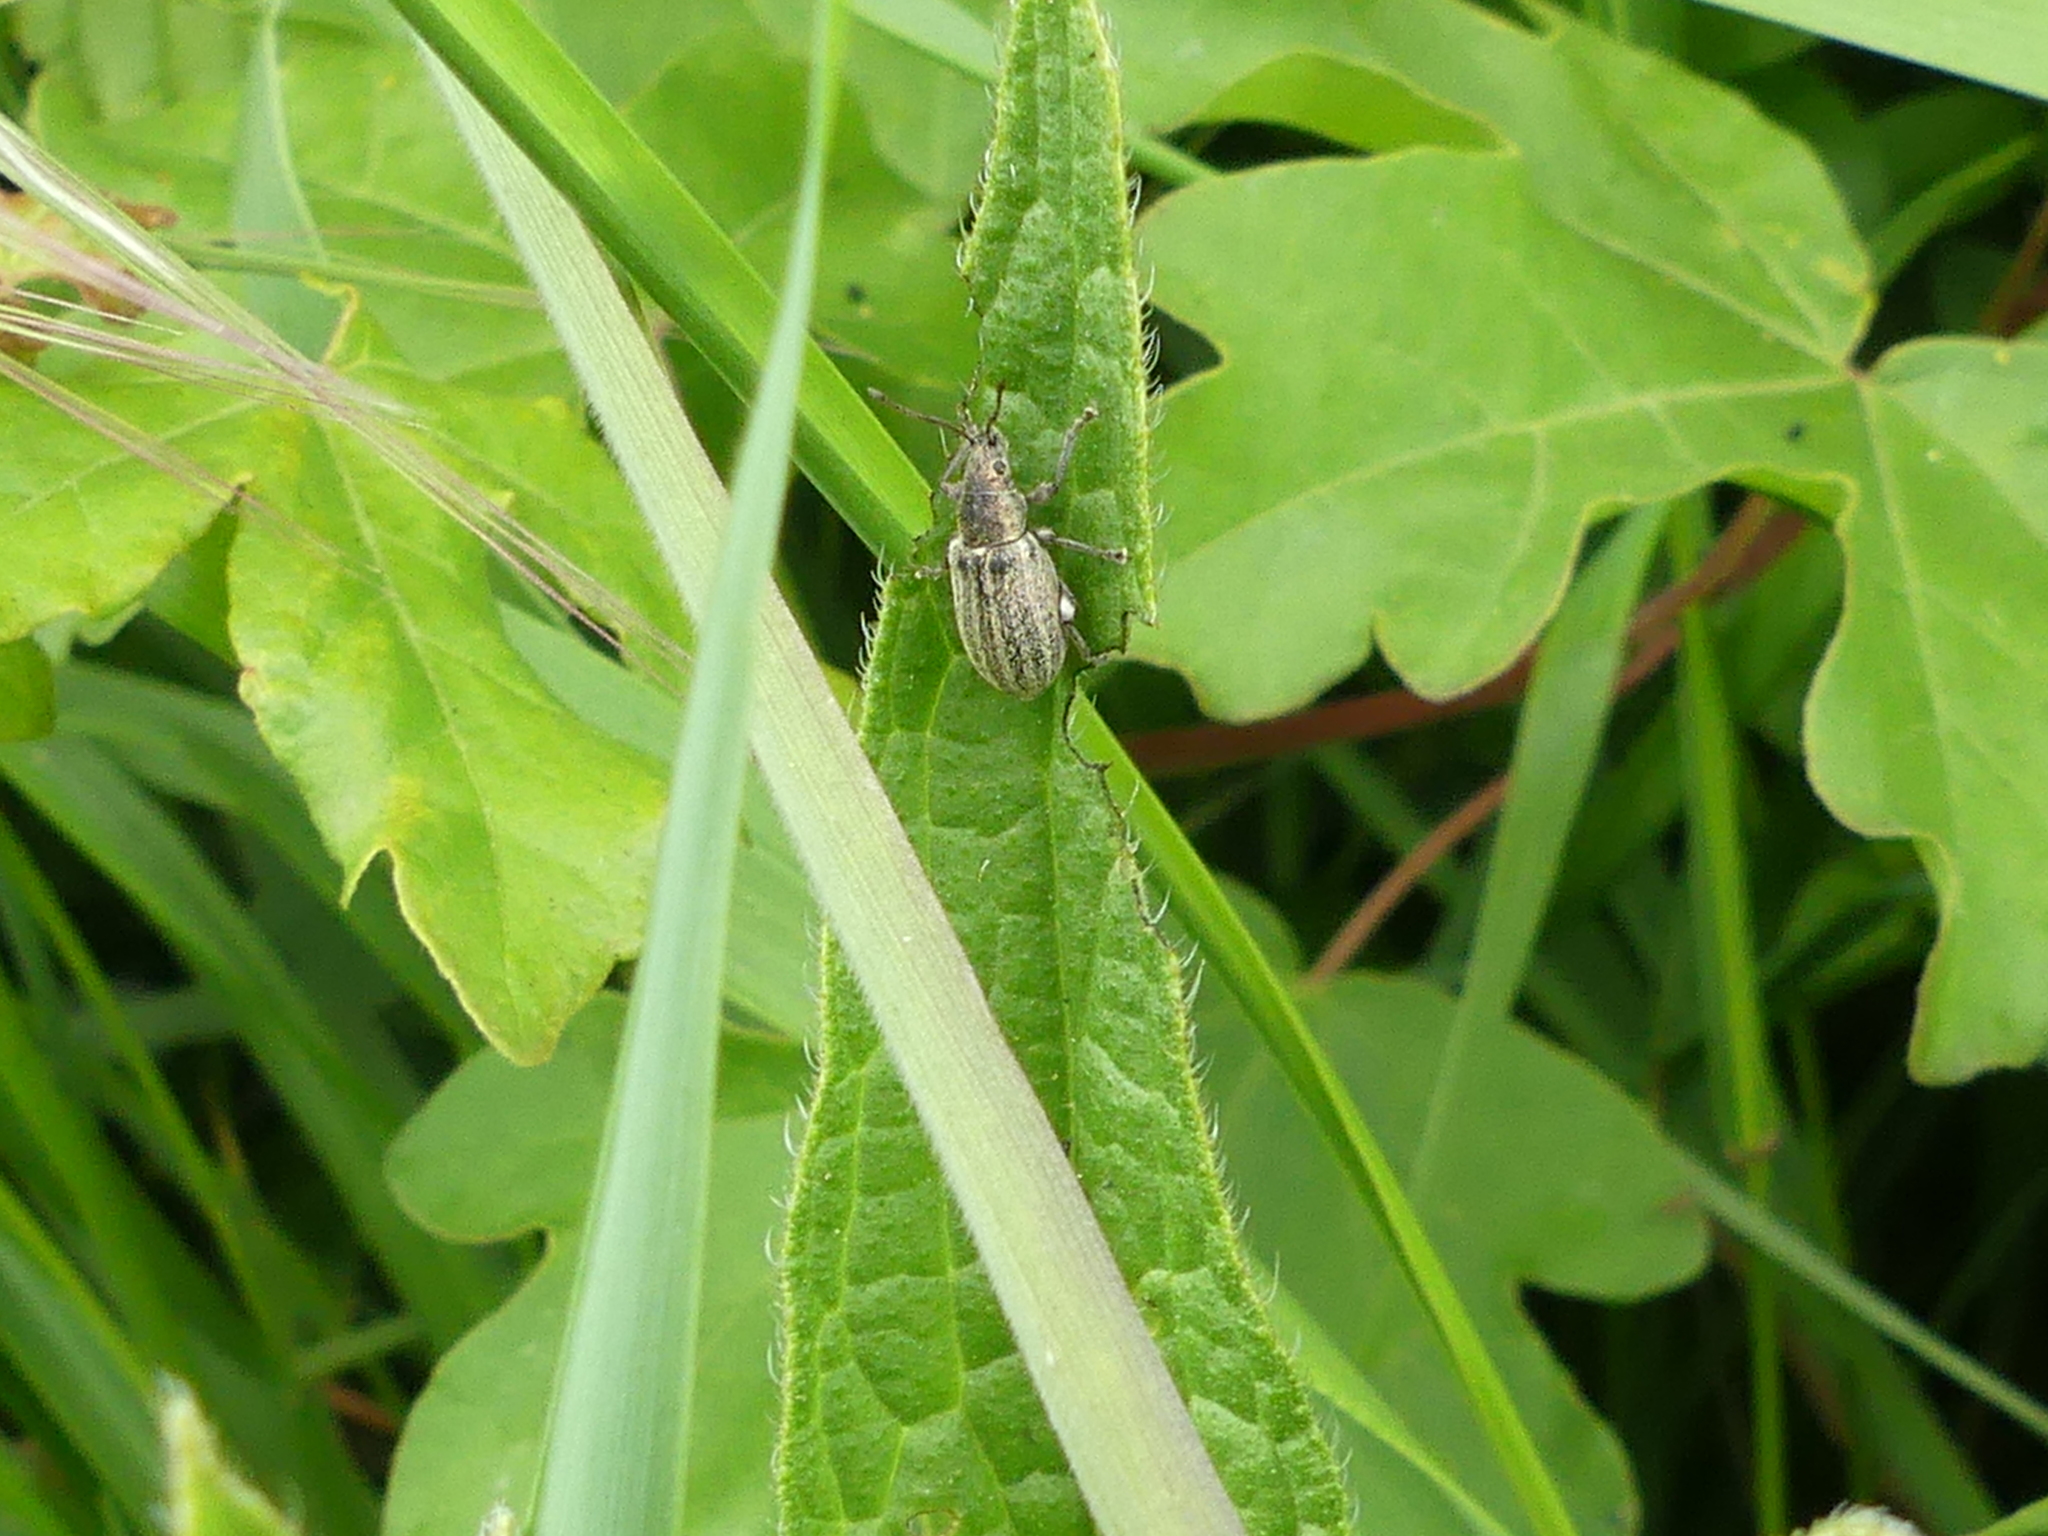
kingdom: Animalia
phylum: Arthropoda
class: Insecta
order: Coleoptera
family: Curculionidae
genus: Phyllobius
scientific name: Phyllobius pyri
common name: Common leaf weevil
